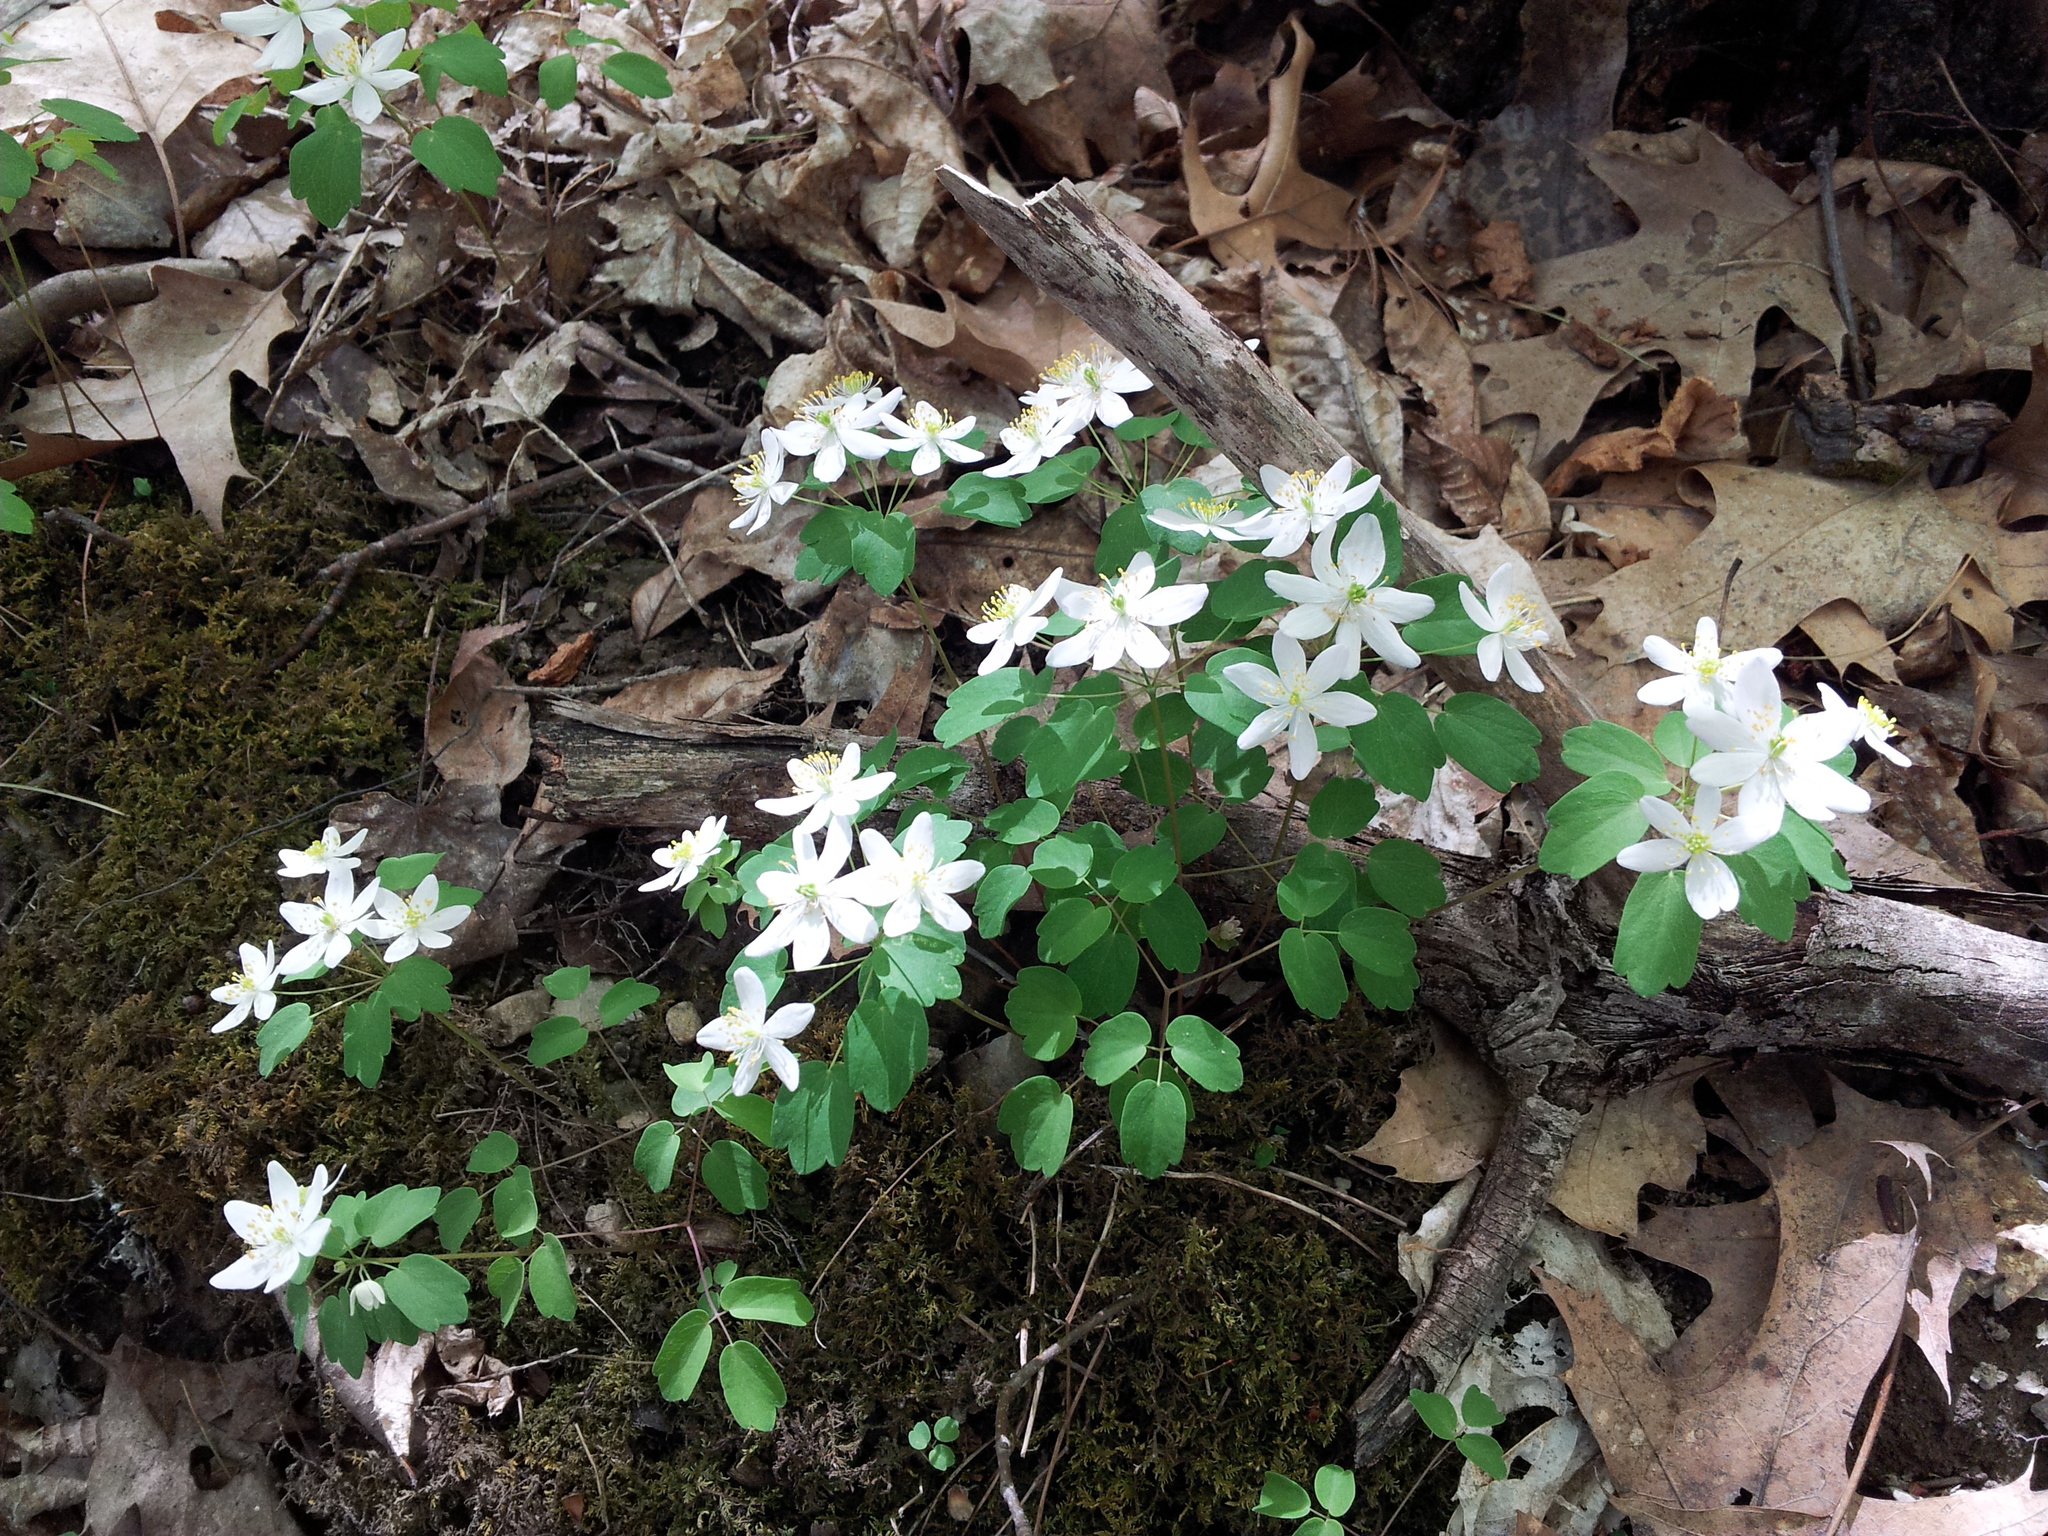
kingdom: Plantae
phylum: Tracheophyta
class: Magnoliopsida
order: Ranunculales
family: Ranunculaceae
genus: Thalictrum
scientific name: Thalictrum thalictroides
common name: Rue-anemone
